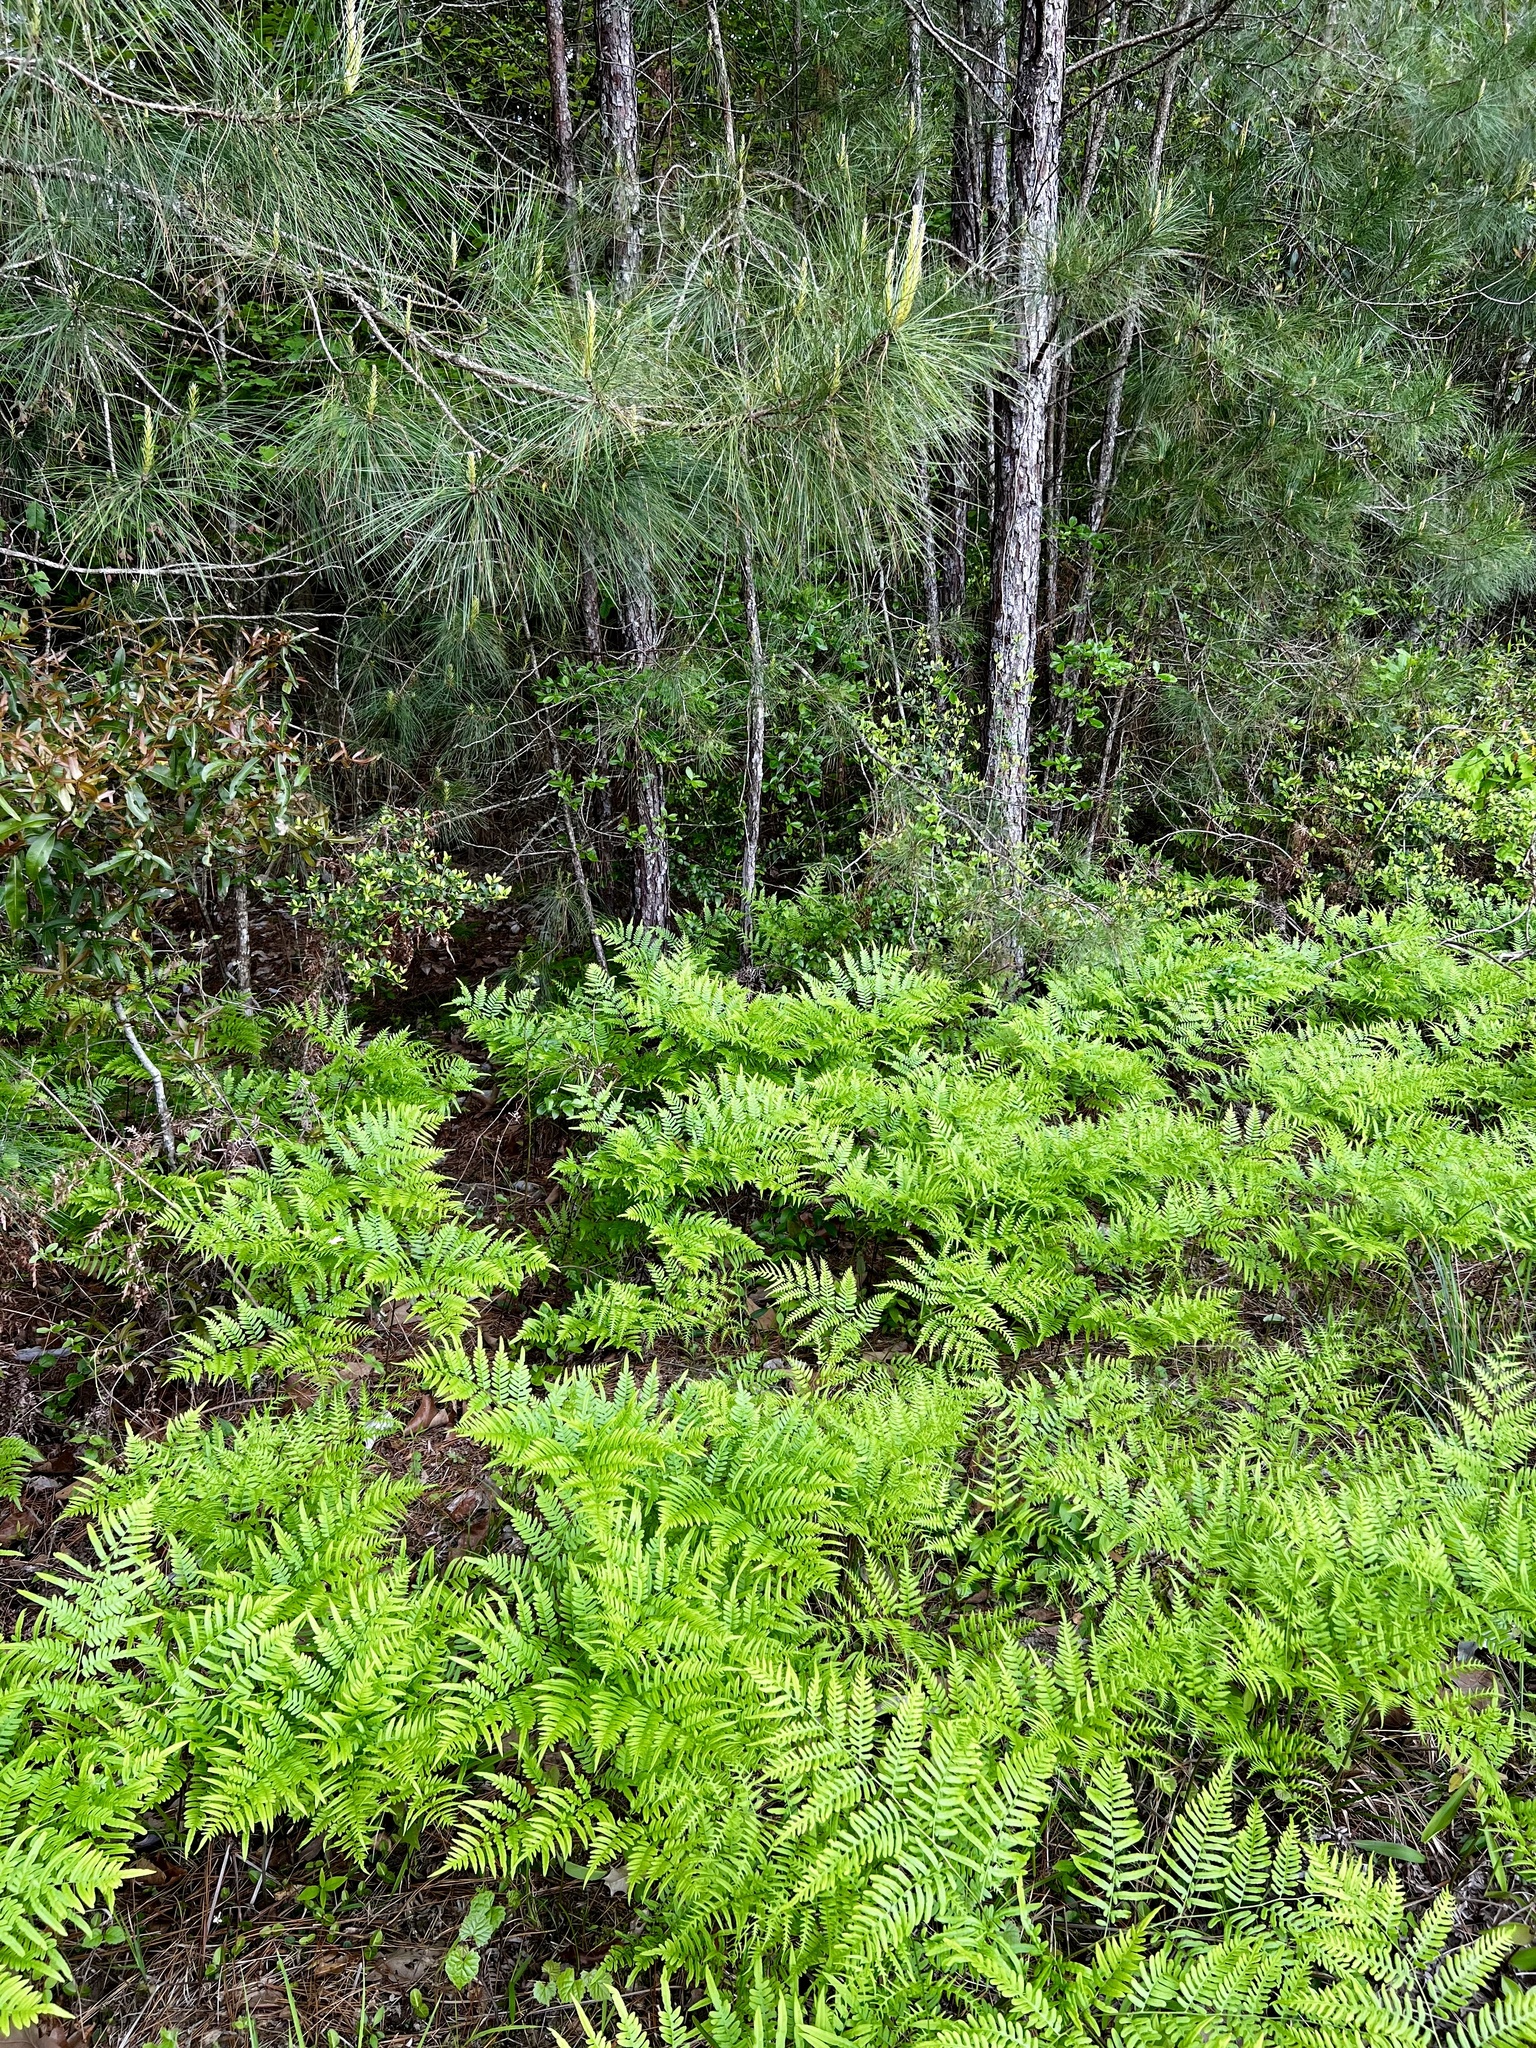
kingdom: Plantae
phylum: Tracheophyta
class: Polypodiopsida
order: Polypodiales
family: Dennstaedtiaceae
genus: Pteridium
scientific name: Pteridium
